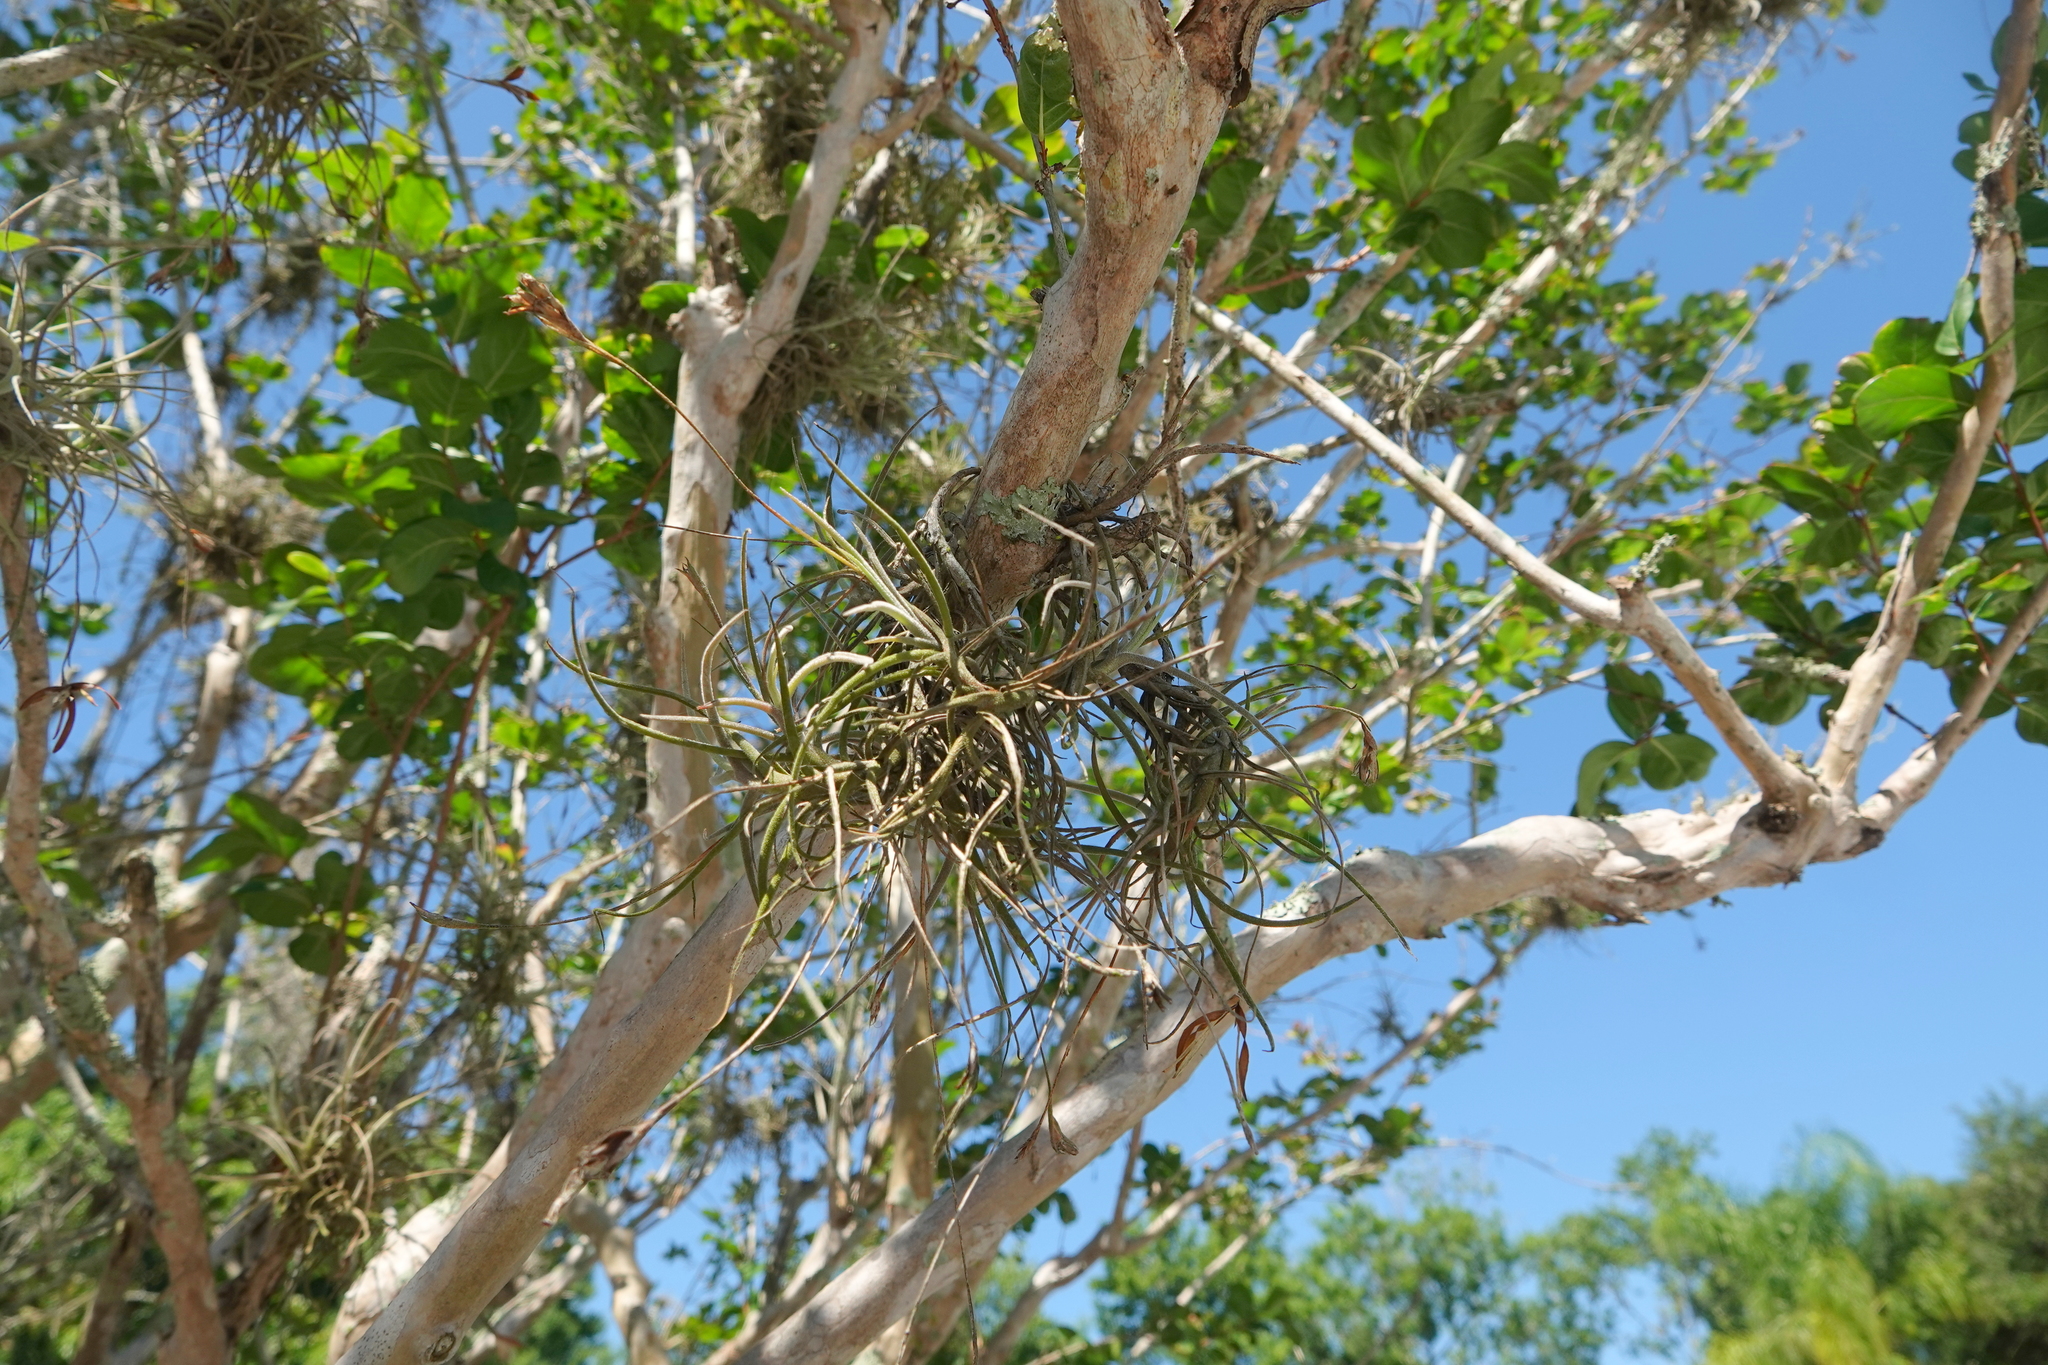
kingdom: Plantae
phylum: Tracheophyta
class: Liliopsida
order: Poales
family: Bromeliaceae
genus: Tillandsia
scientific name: Tillandsia recurvata
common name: Small ballmoss
